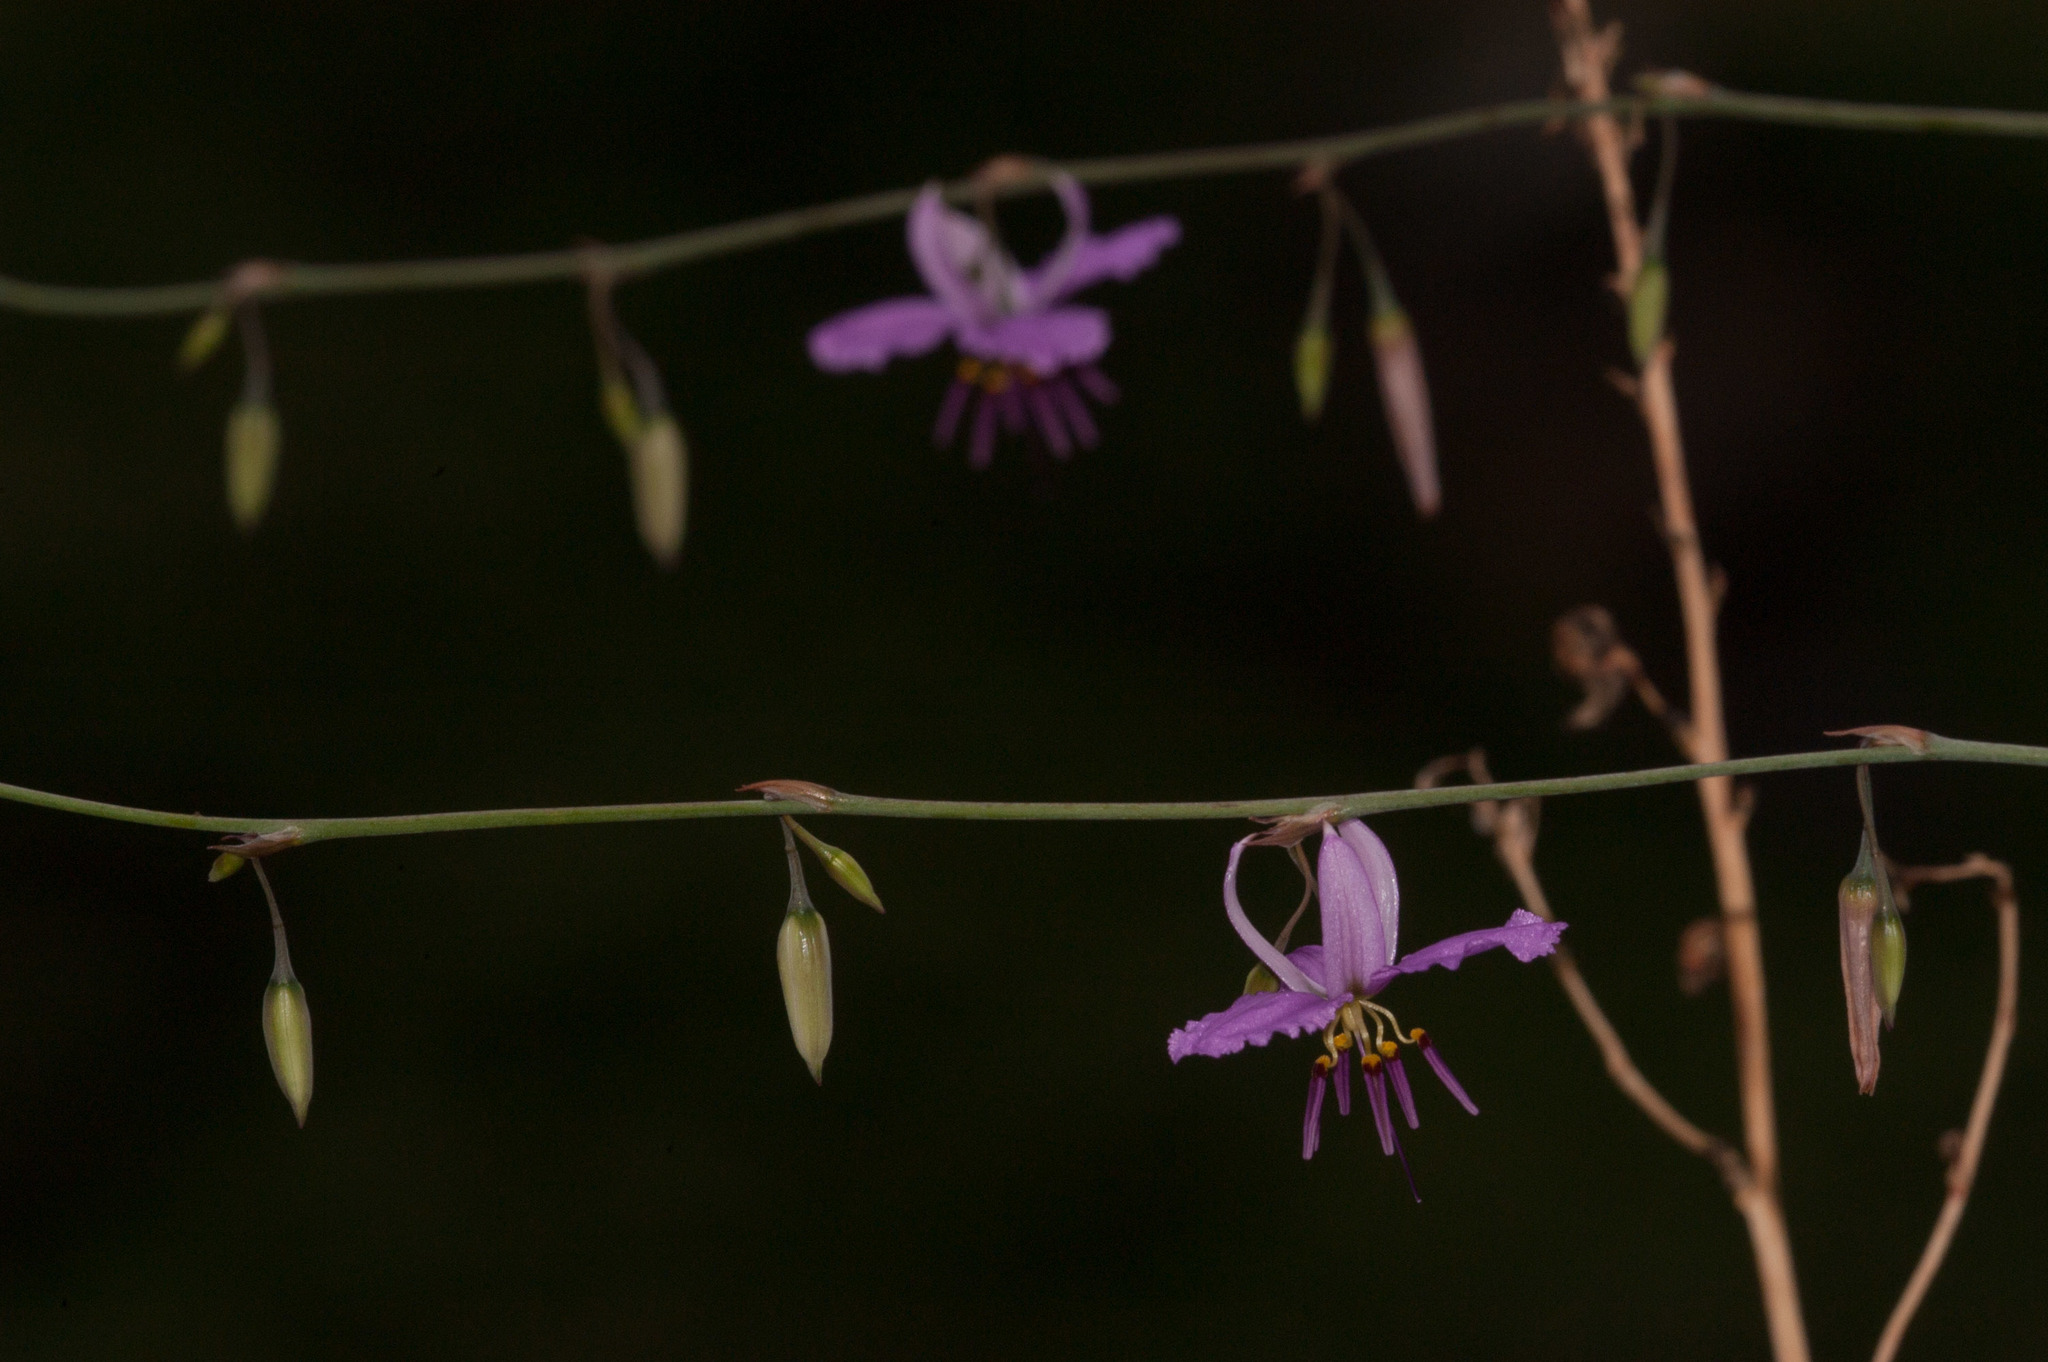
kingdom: Plantae
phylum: Tracheophyta
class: Liliopsida
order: Asparagales
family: Asparagaceae
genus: Dichopogon
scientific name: Dichopogon fimbriatus
